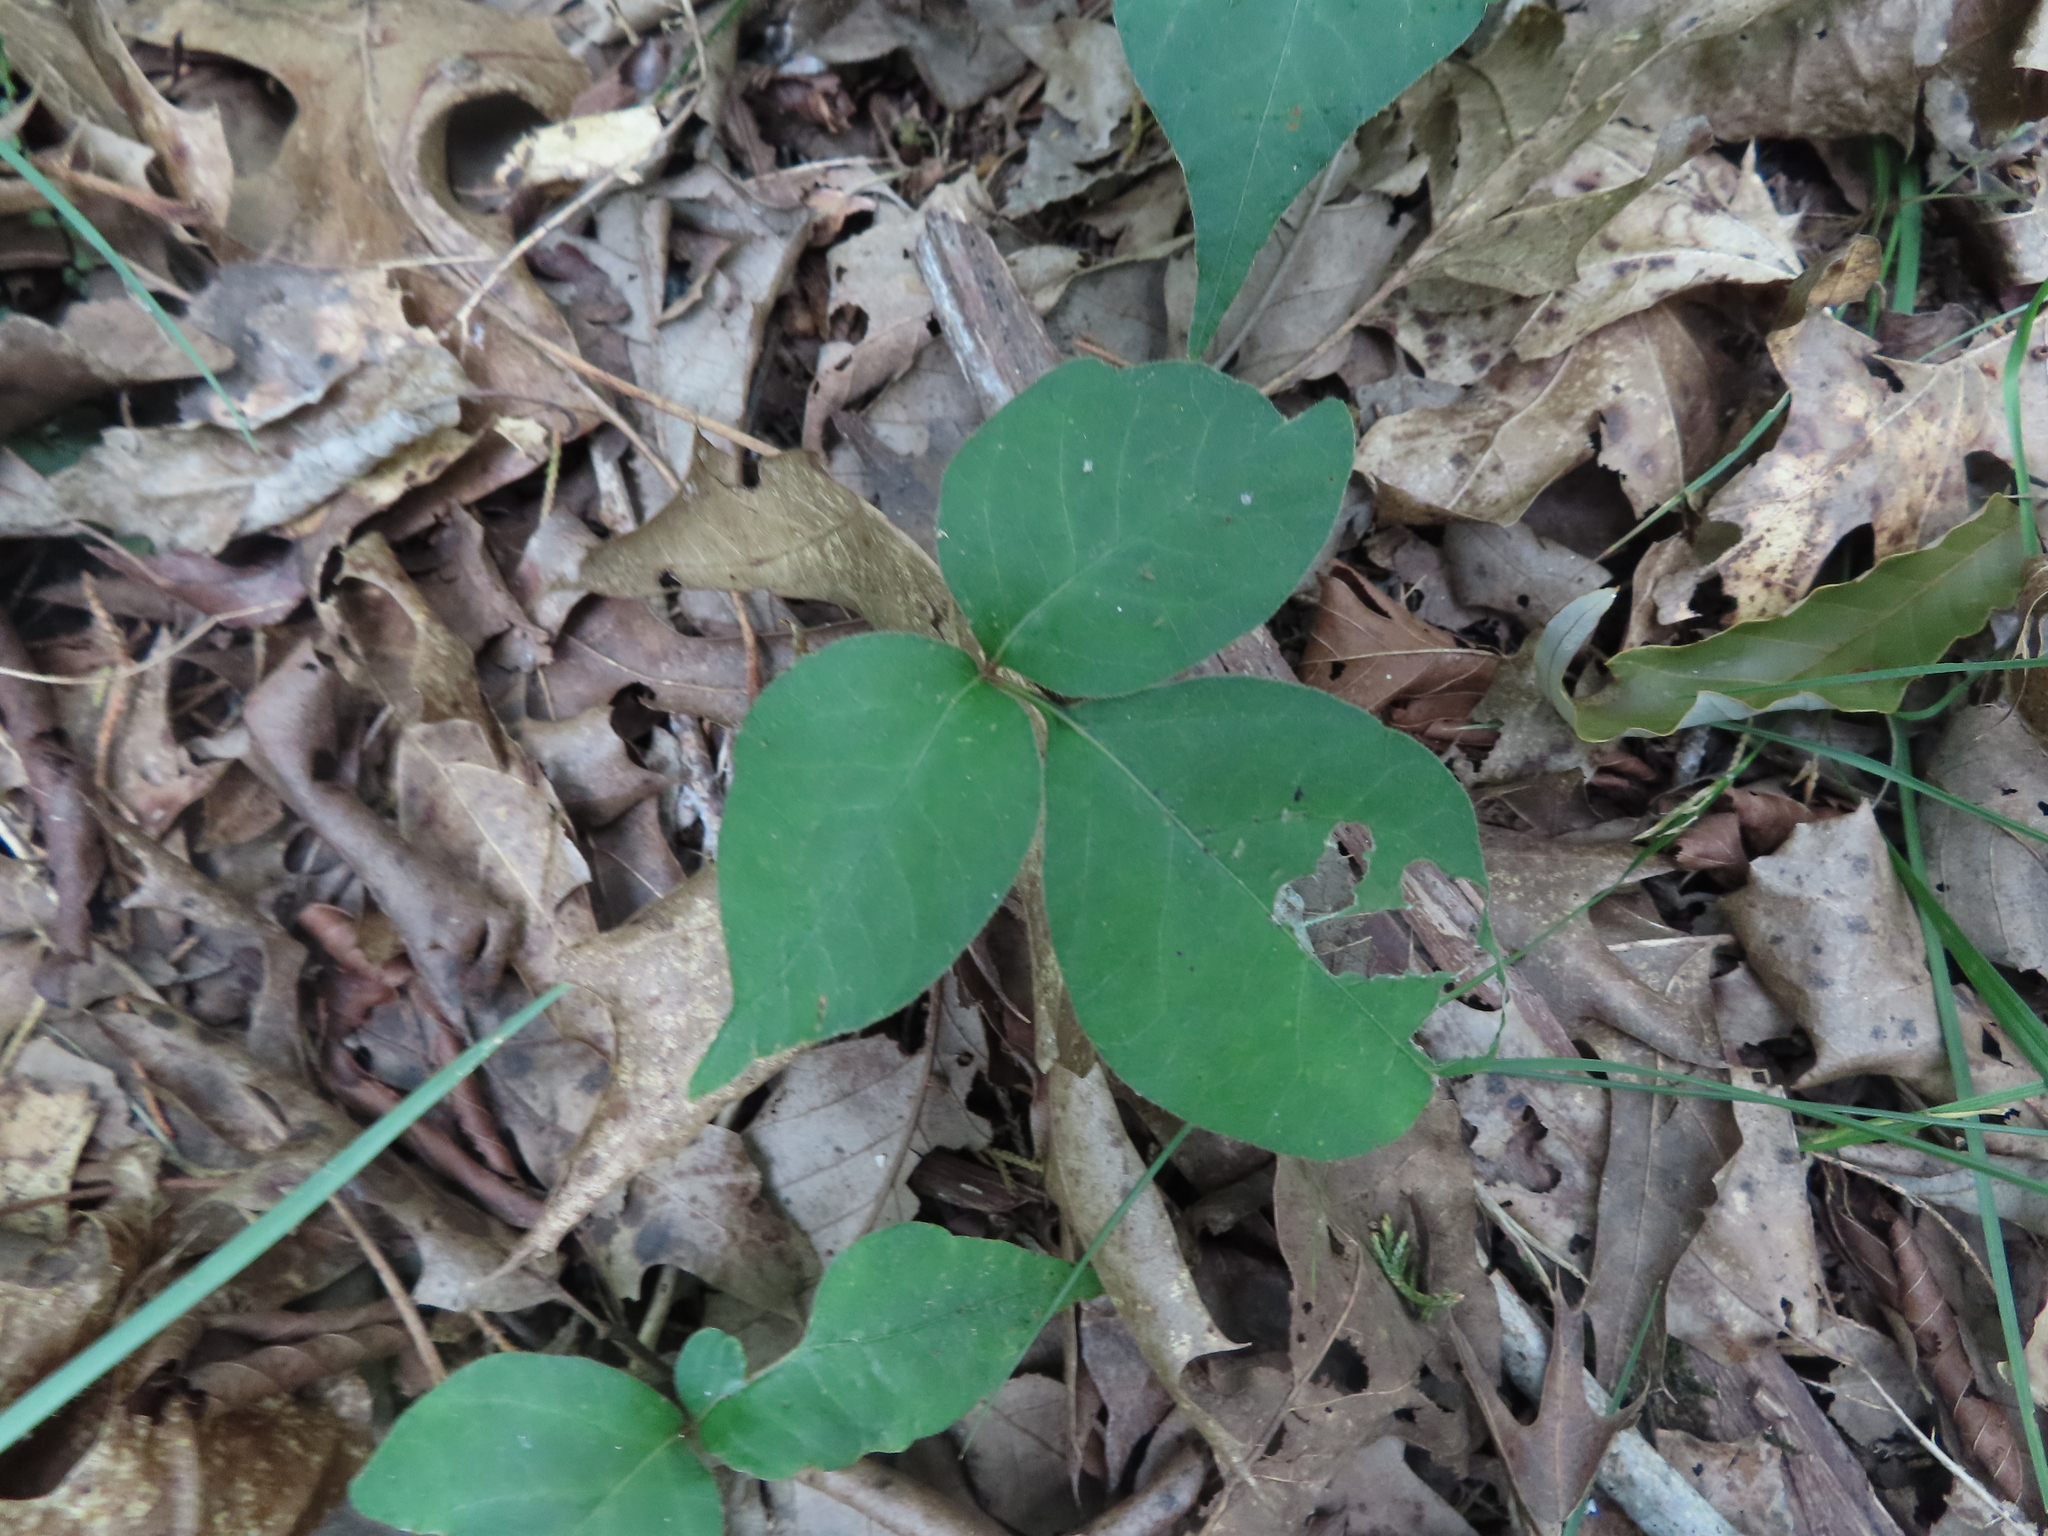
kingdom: Plantae
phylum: Tracheophyta
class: Magnoliopsida
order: Sapindales
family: Anacardiaceae
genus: Toxicodendron
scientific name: Toxicodendron radicans
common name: Poison ivy
